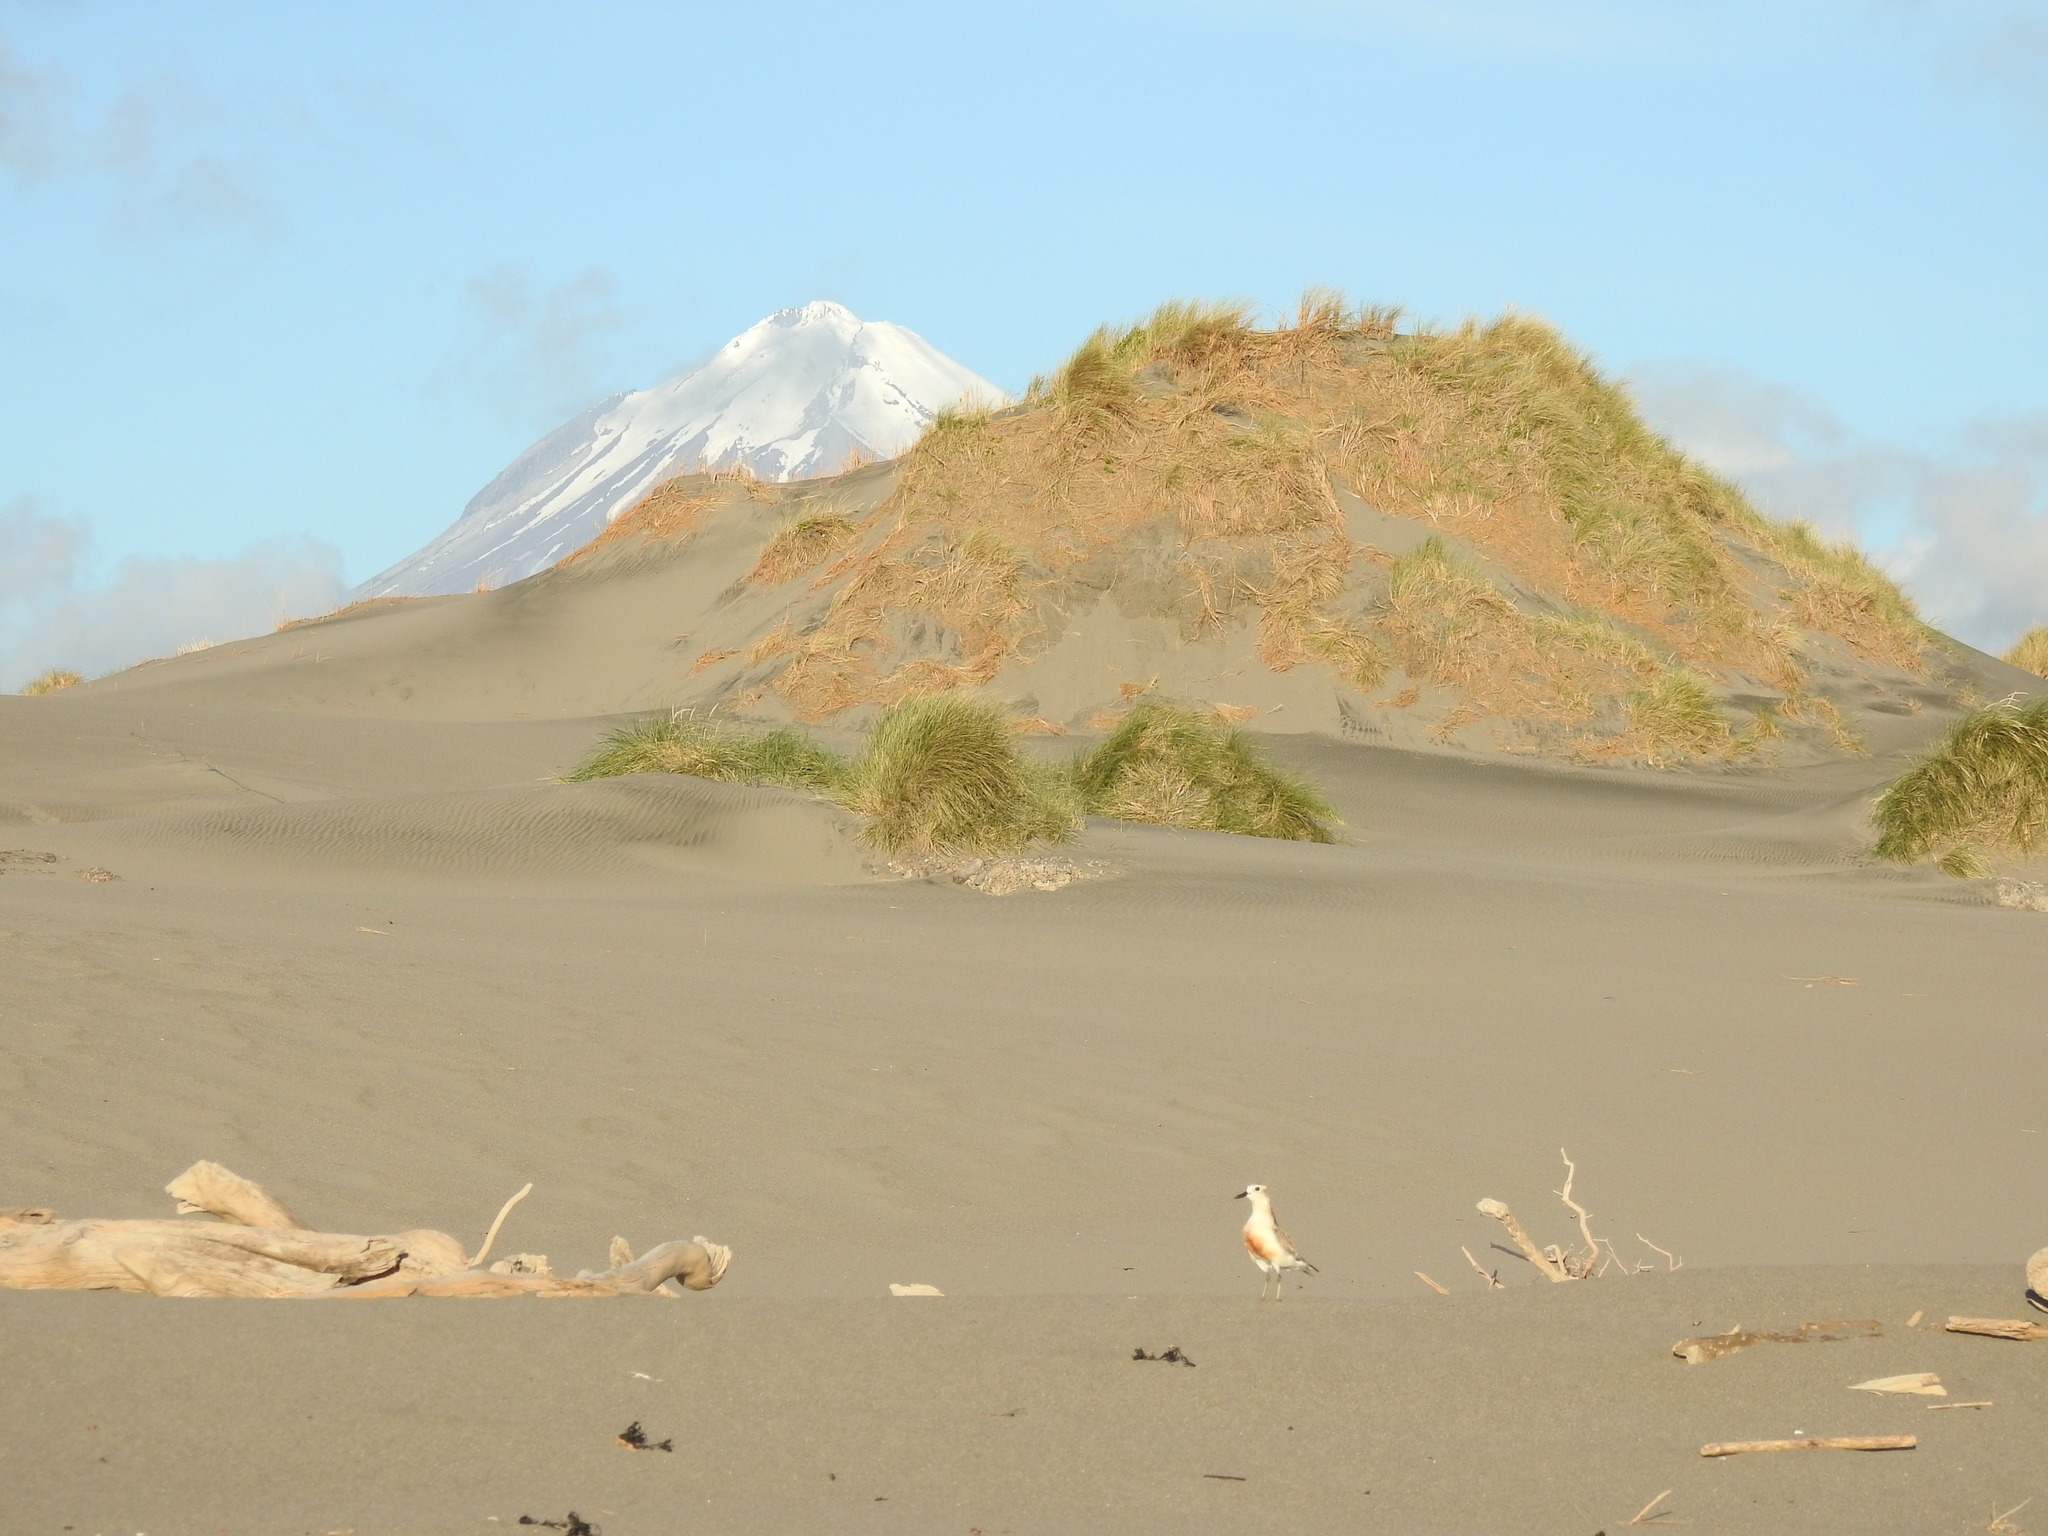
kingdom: Animalia
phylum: Chordata
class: Aves
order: Charadriiformes
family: Charadriidae
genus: Anarhynchus
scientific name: Anarhynchus
